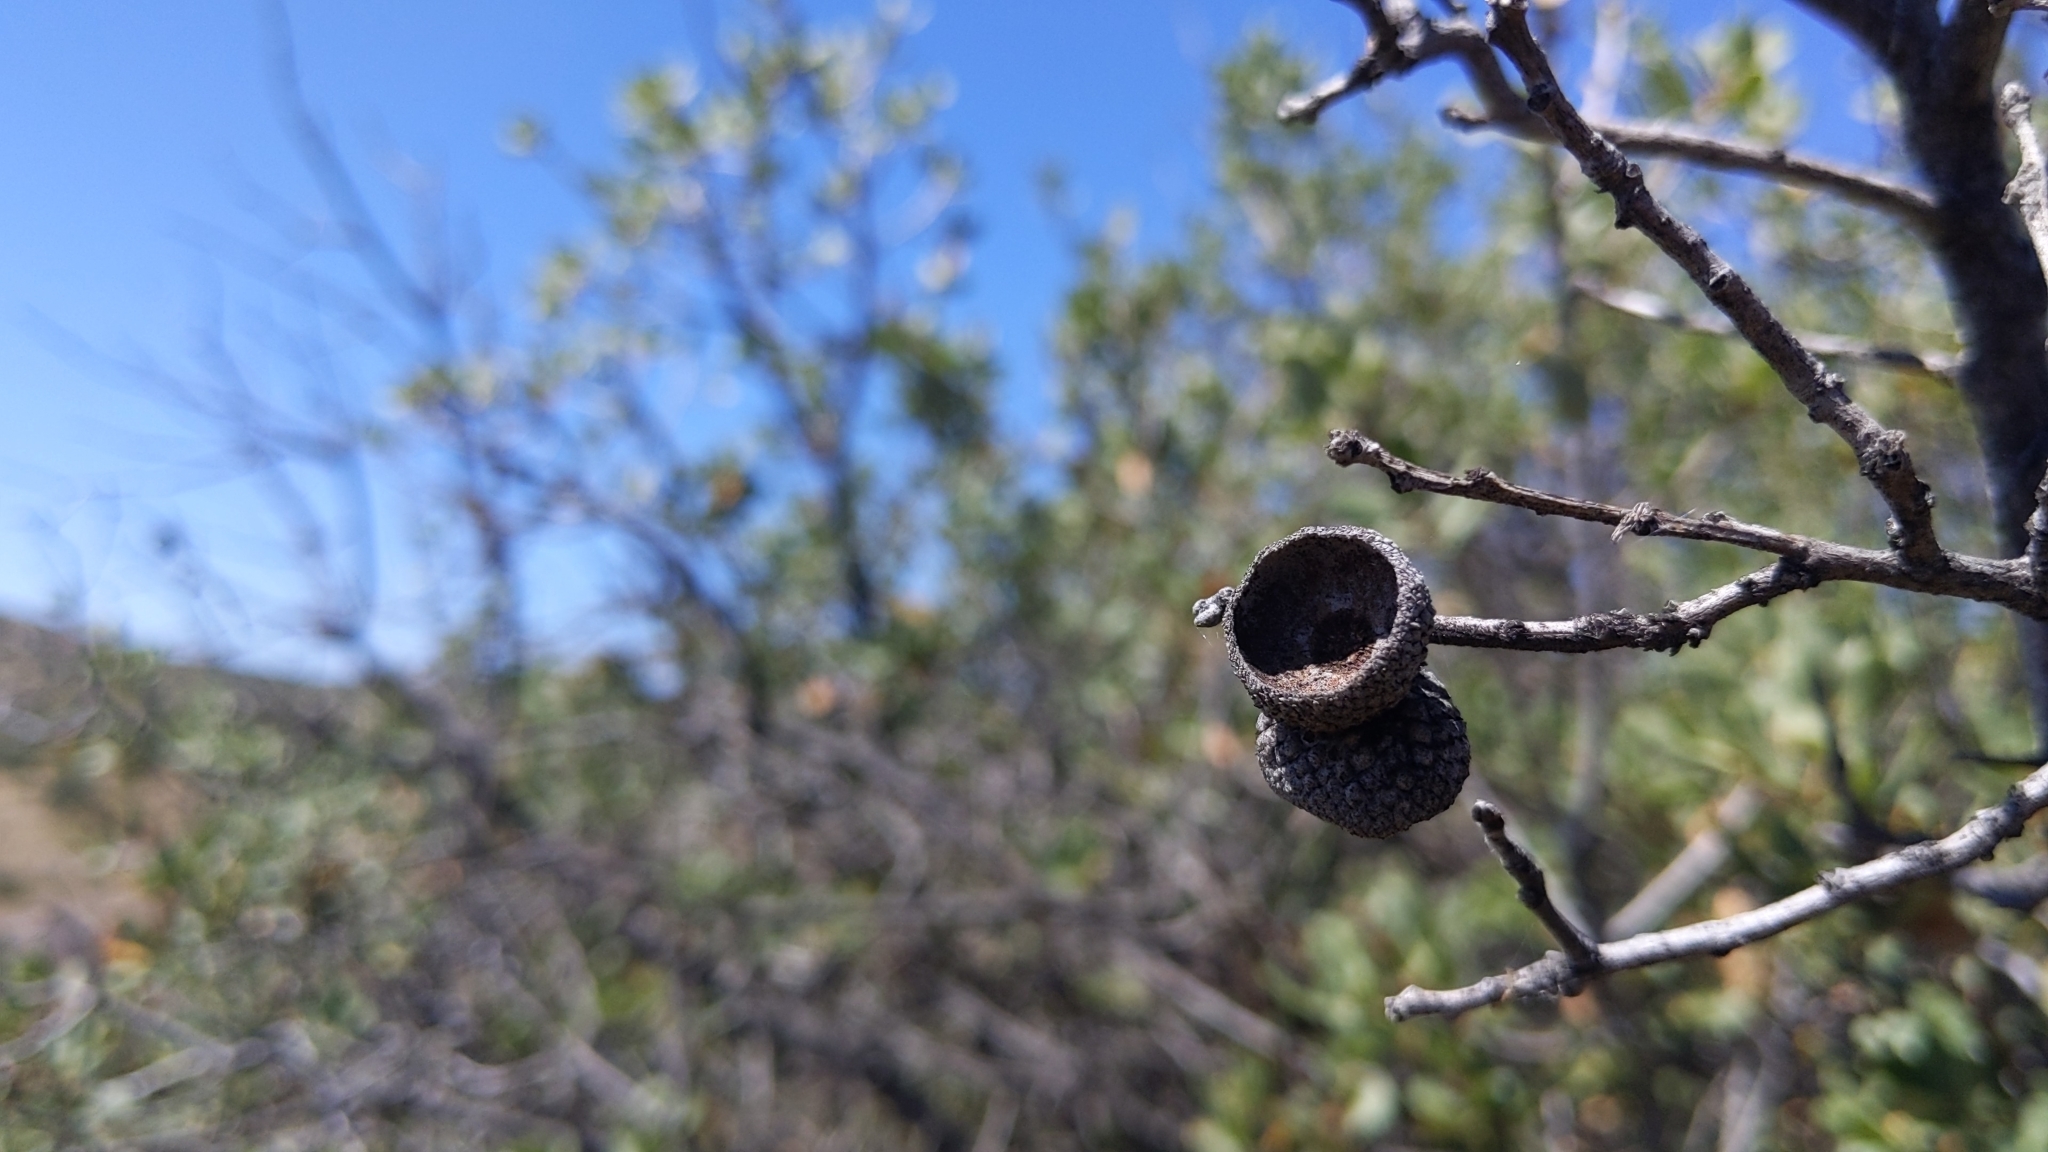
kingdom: Plantae
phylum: Tracheophyta
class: Magnoliopsida
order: Fagales
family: Fagaceae
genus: Quercus
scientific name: Quercus cornelius-mulleri
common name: Muller oak
